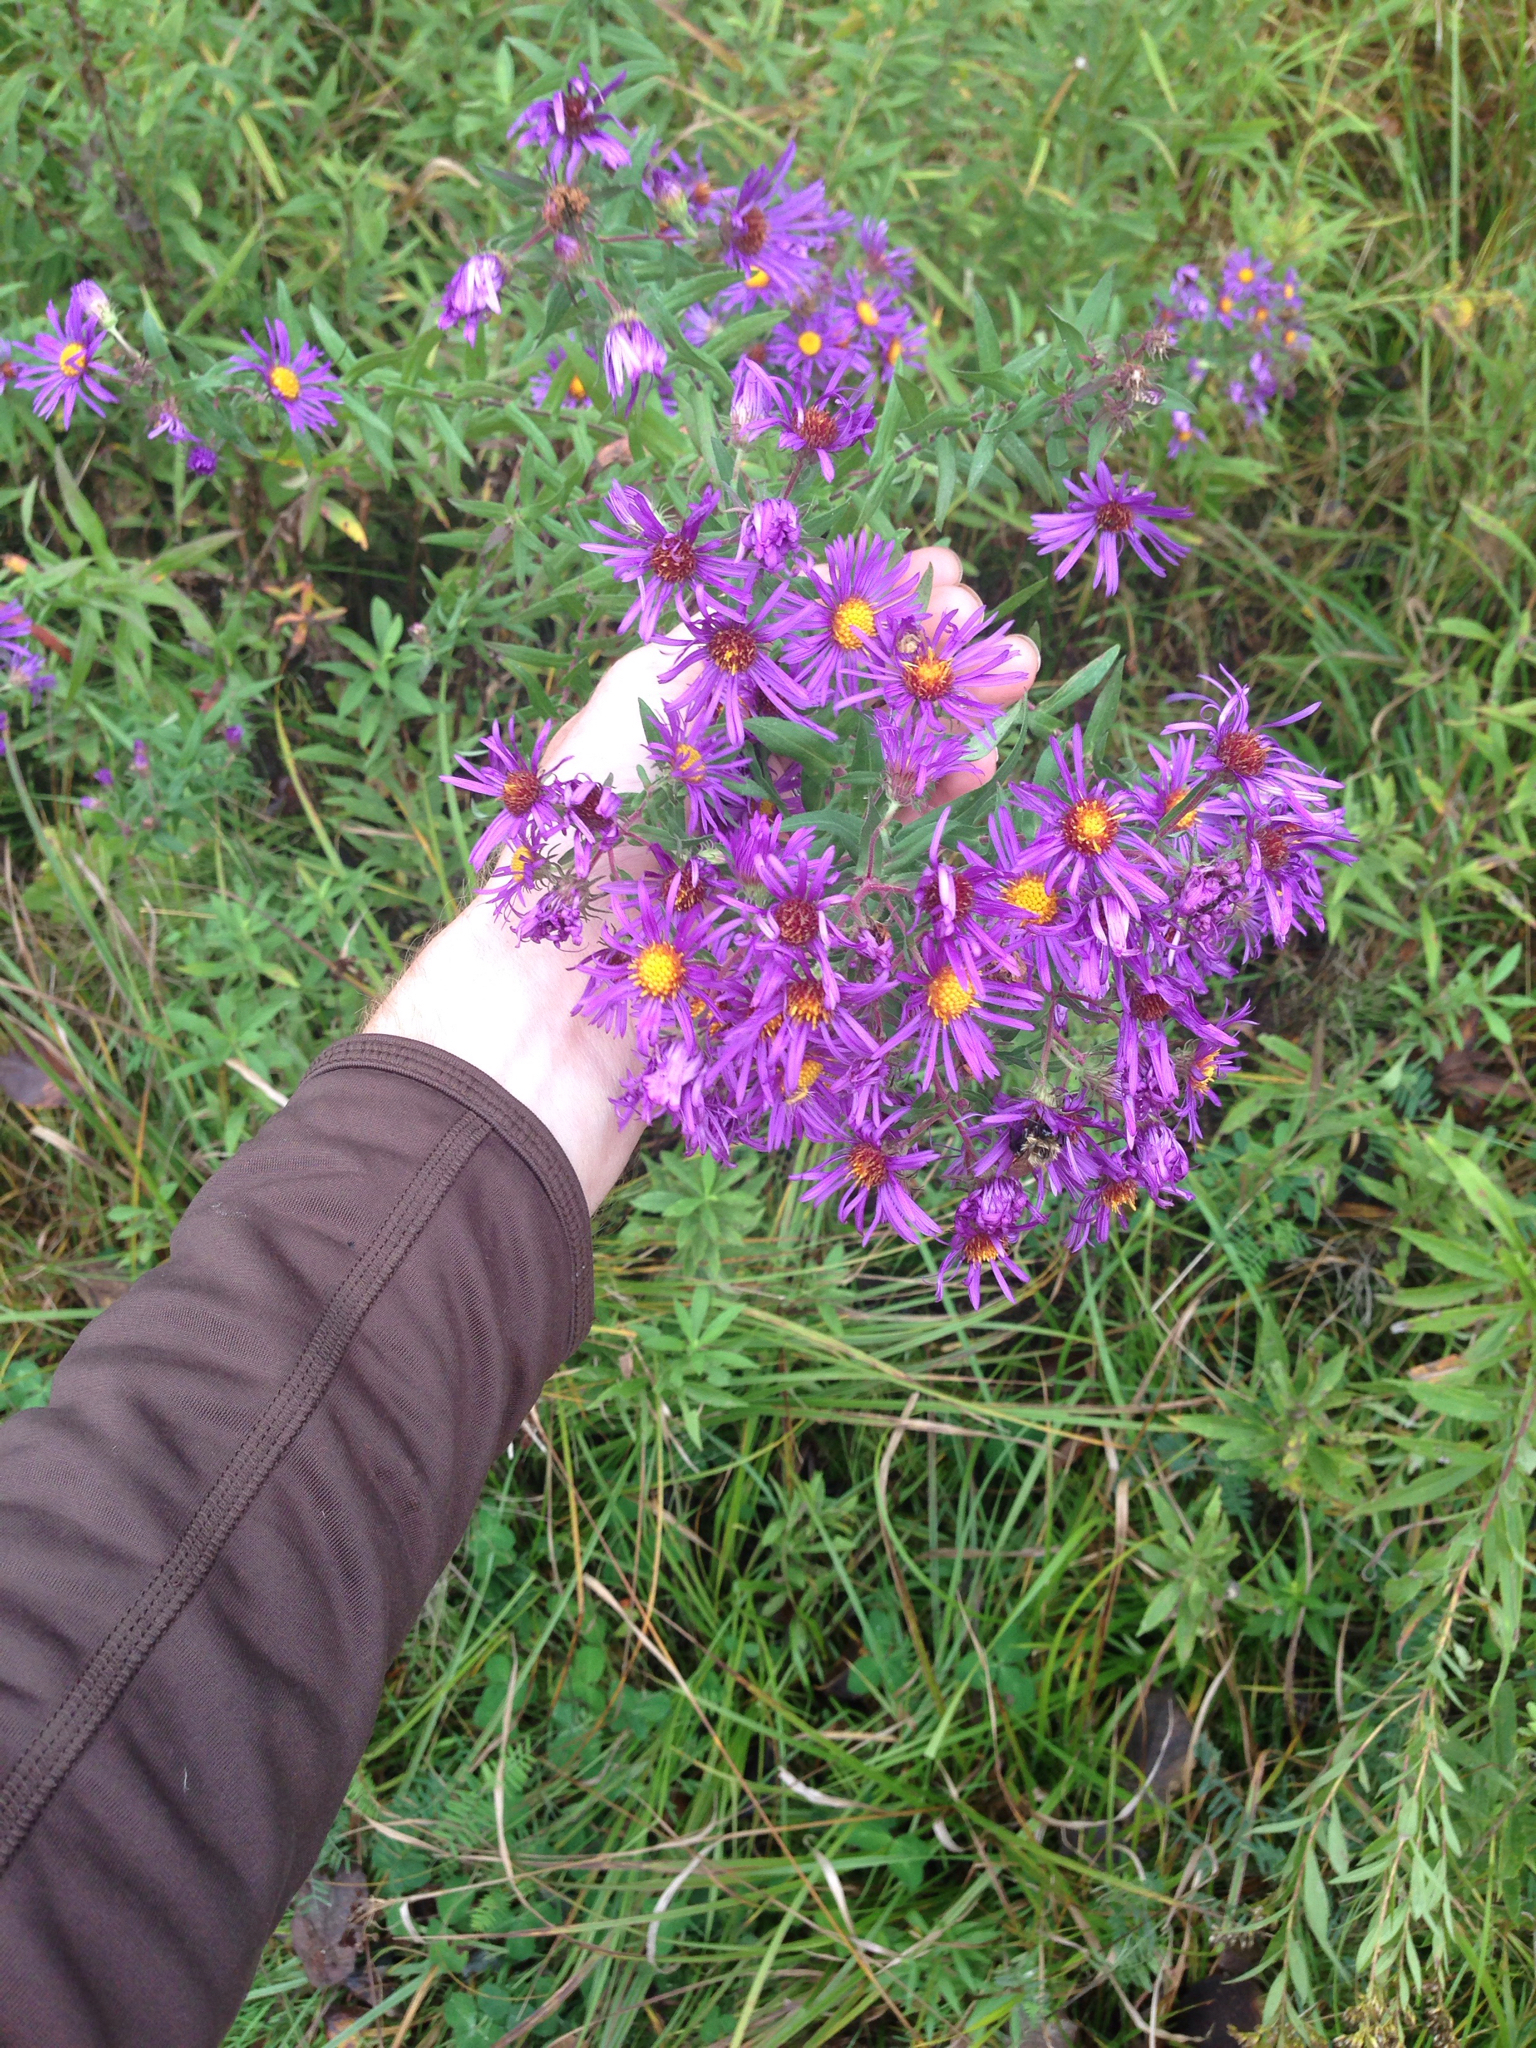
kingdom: Plantae
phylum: Tracheophyta
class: Magnoliopsida
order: Asterales
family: Asteraceae
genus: Symphyotrichum
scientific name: Symphyotrichum novae-angliae
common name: Michaelmas daisy
